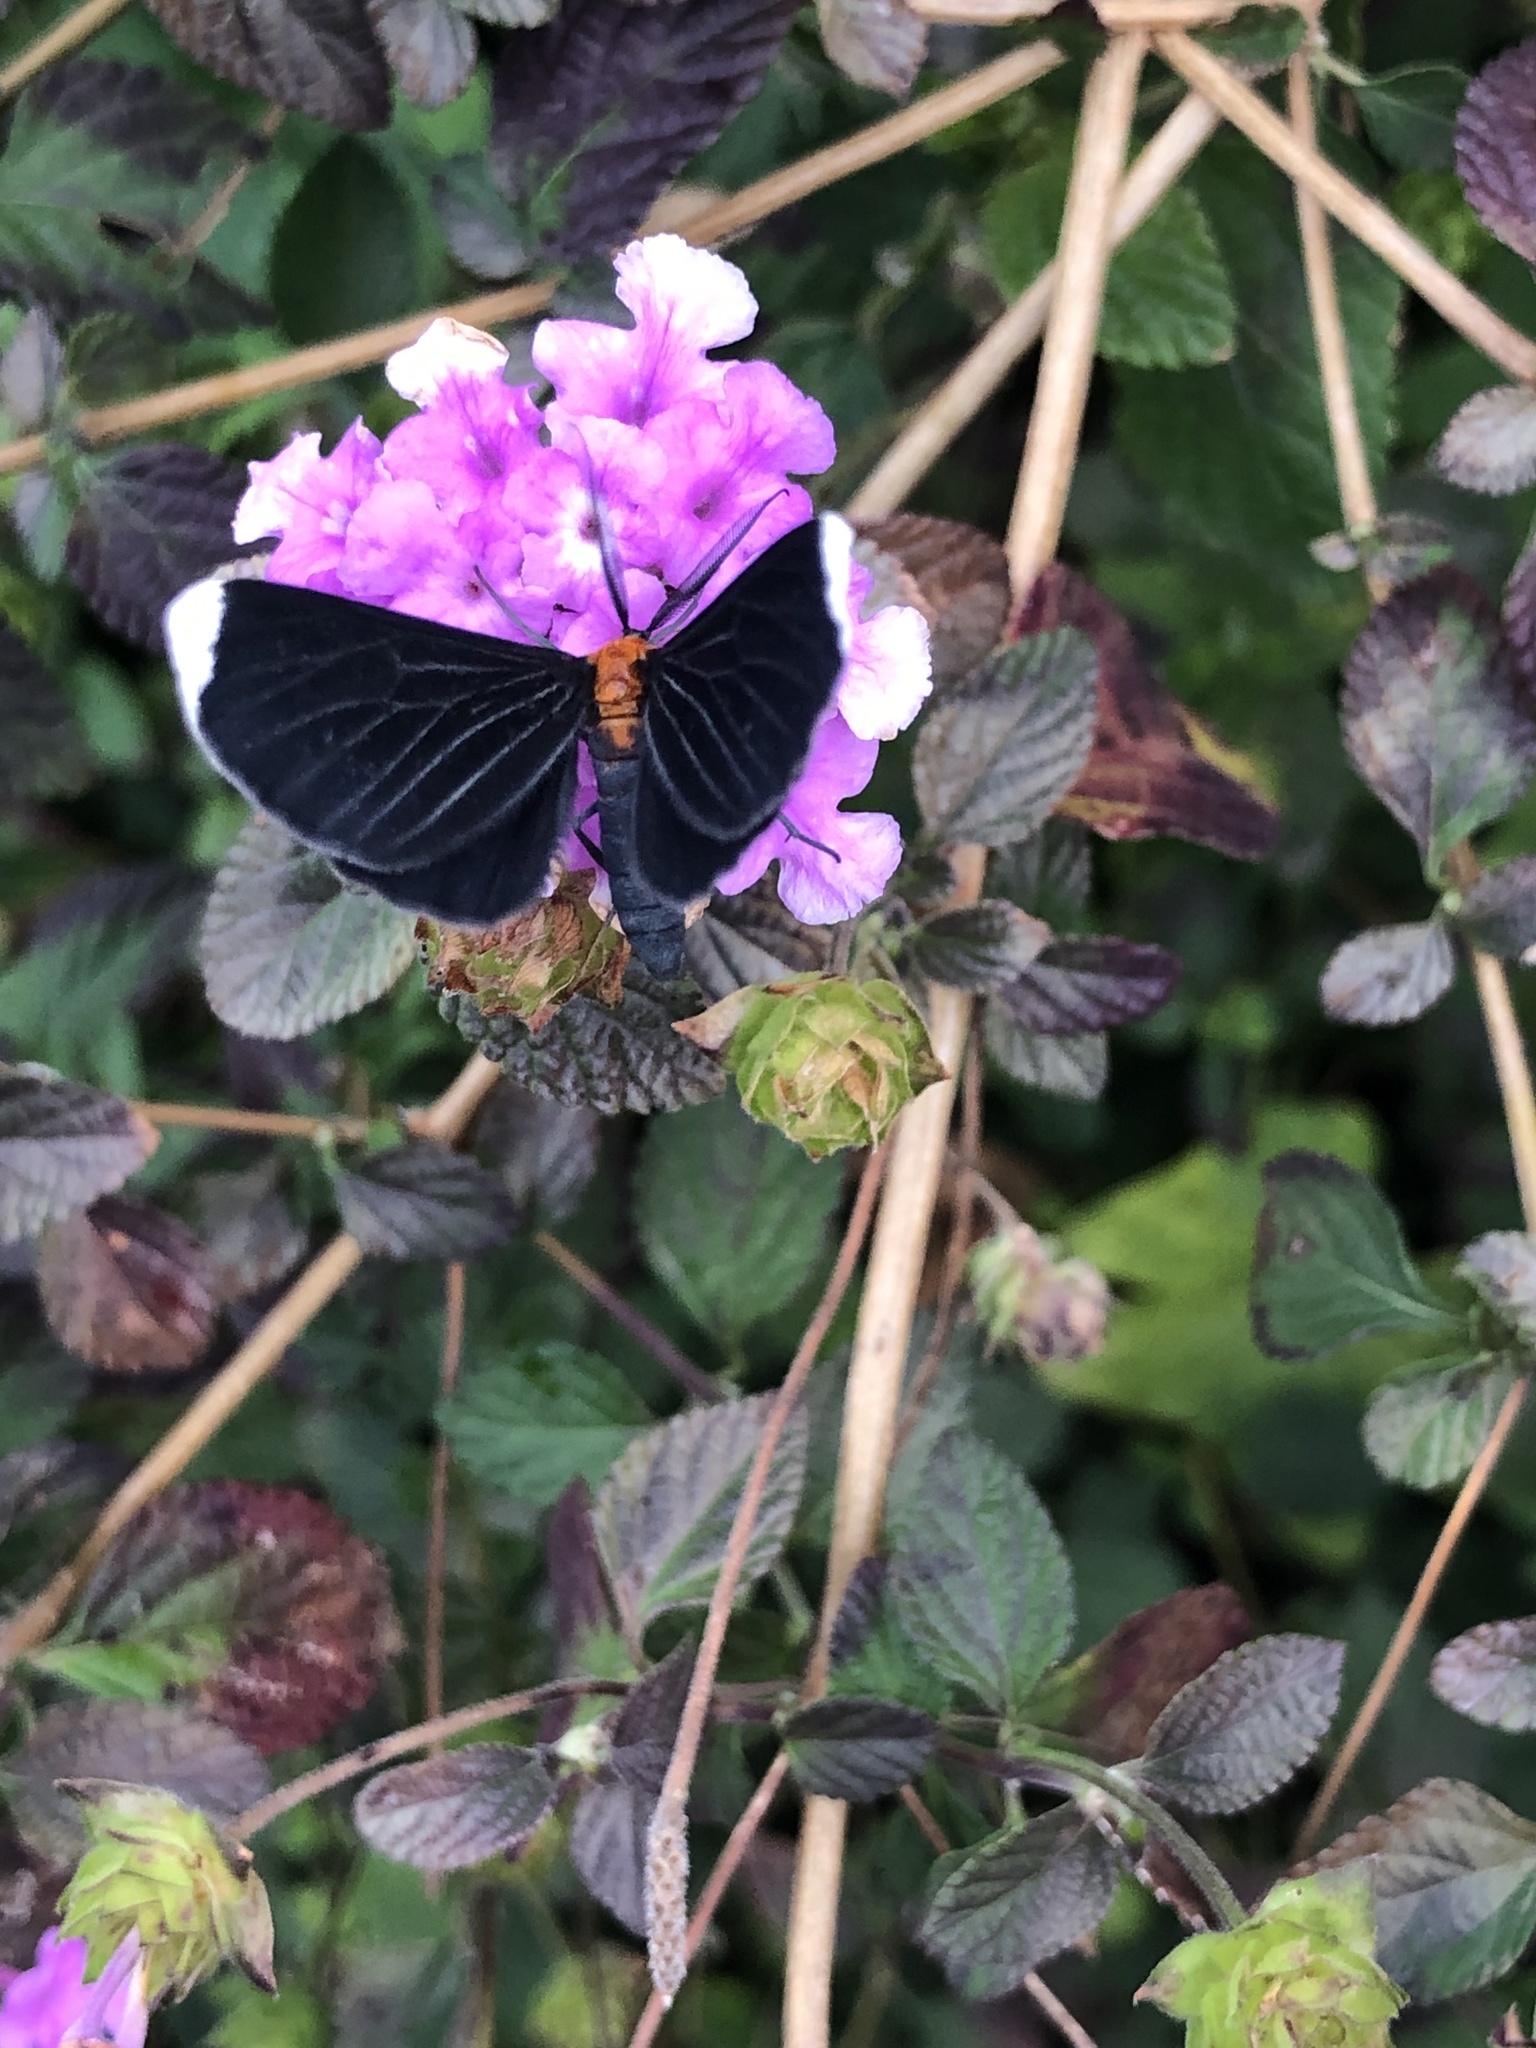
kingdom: Animalia
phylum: Arthropoda
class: Insecta
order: Lepidoptera
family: Geometridae
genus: Melanchroia
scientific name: Melanchroia chephise
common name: White-tipped black
